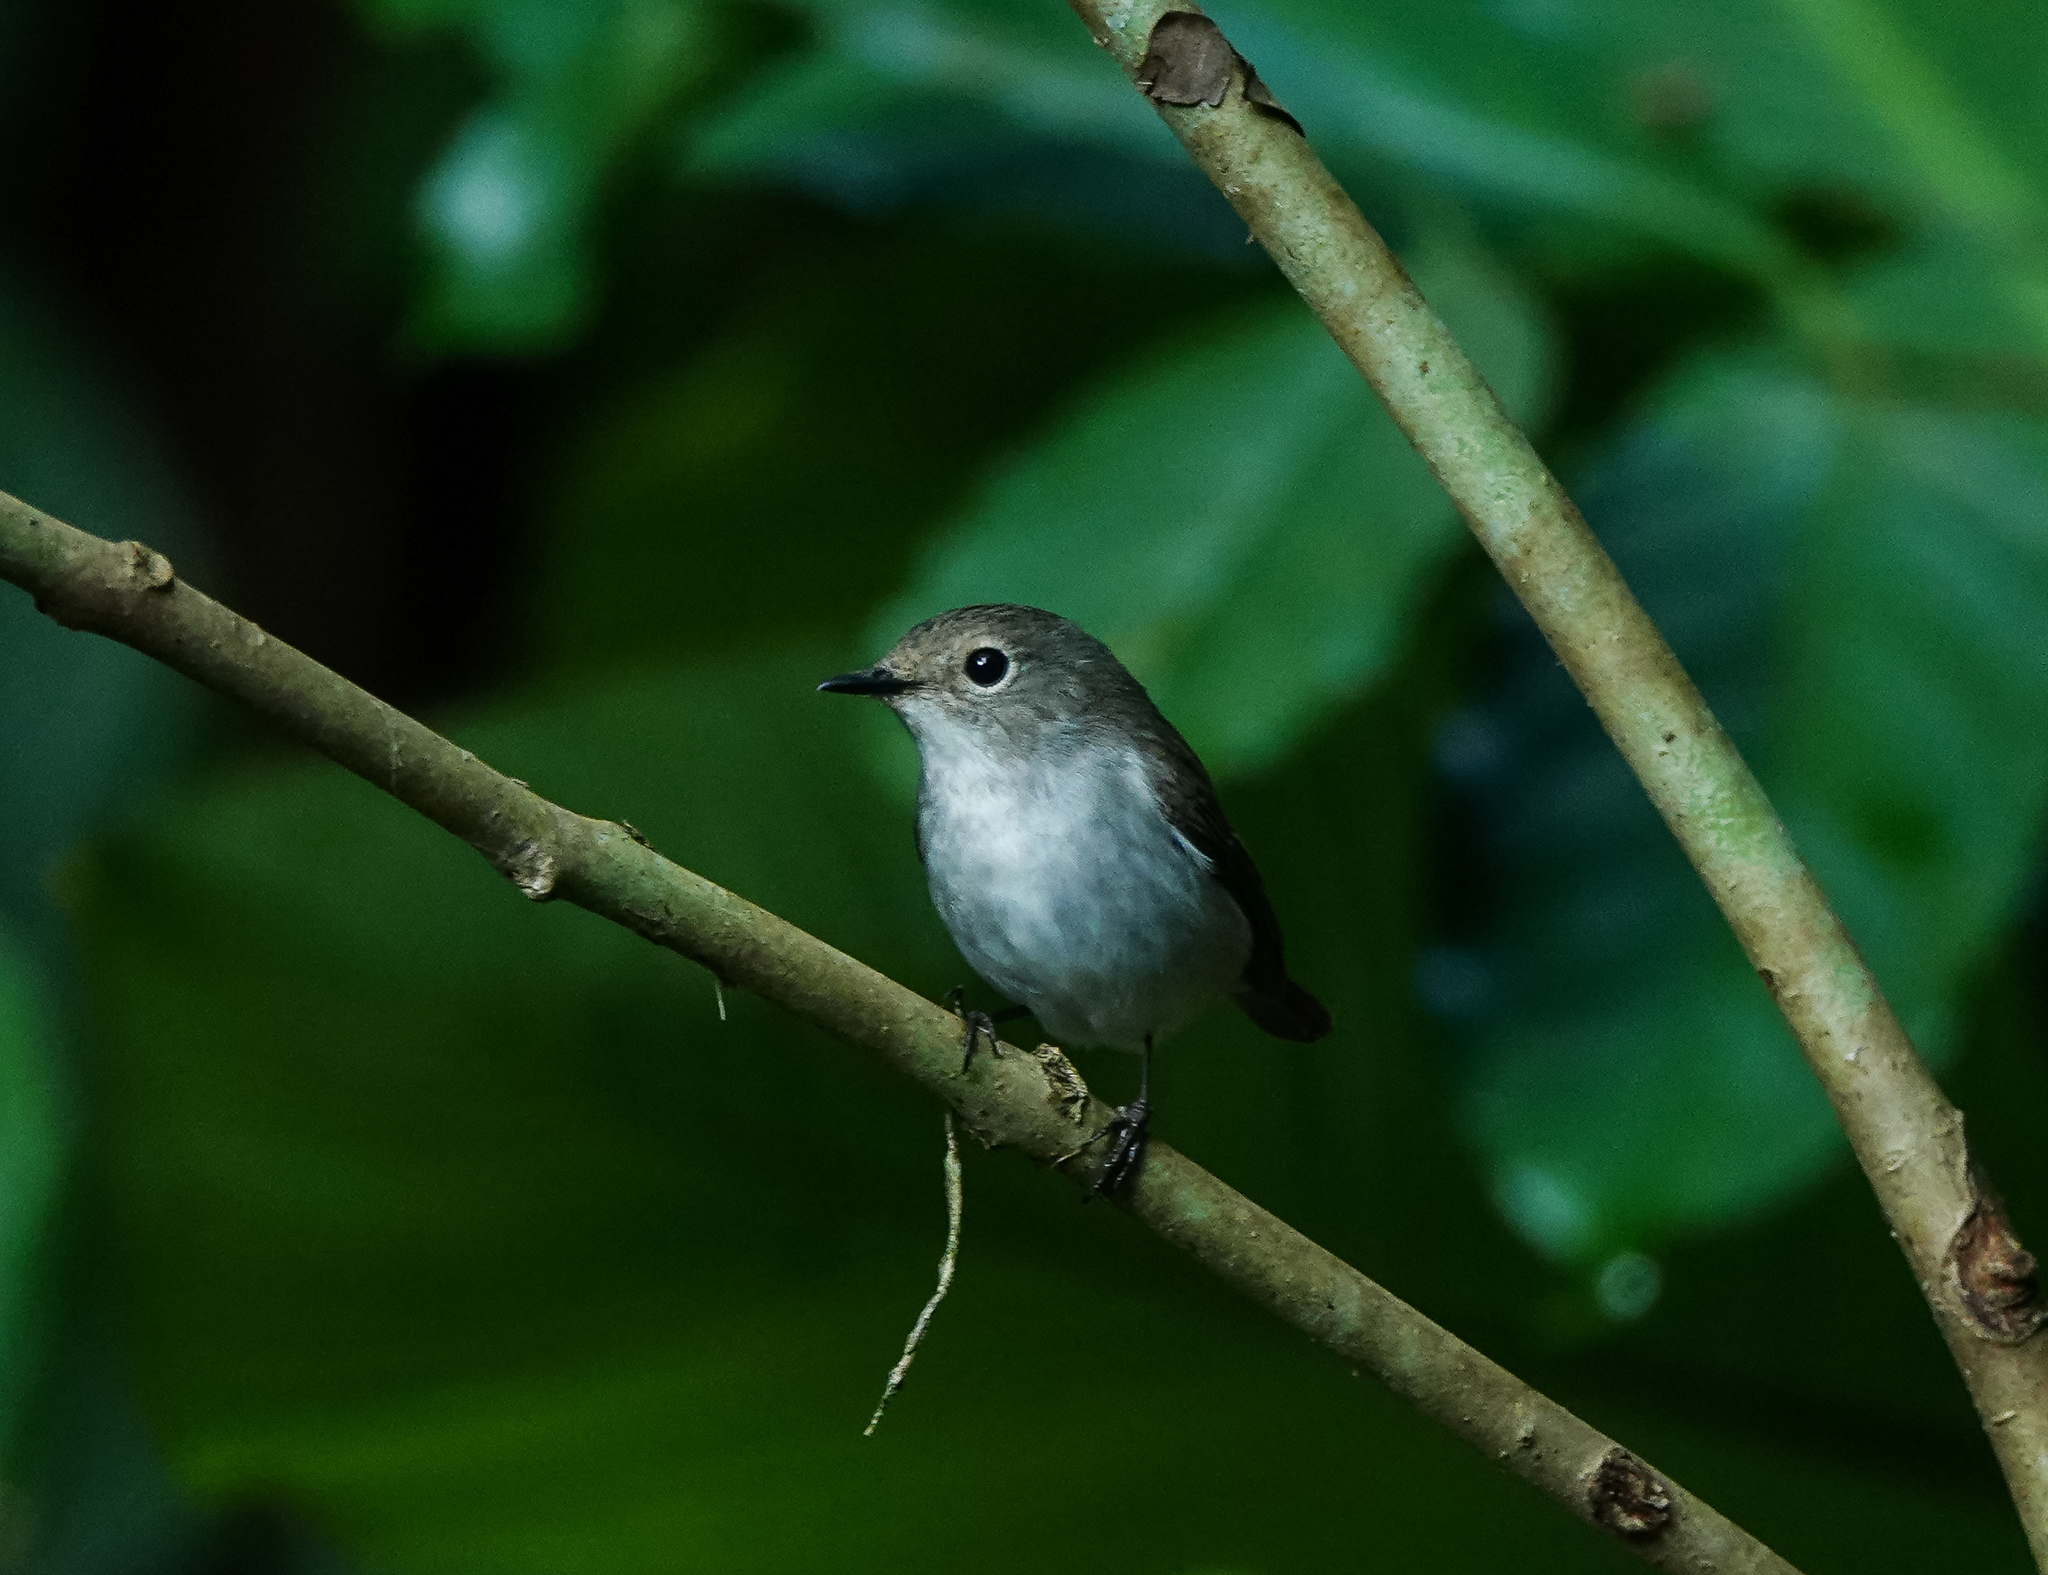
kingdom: Animalia
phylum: Chordata
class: Aves
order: Passeriformes
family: Muscicapidae
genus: Ficedula
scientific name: Ficedula westermanni
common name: Little pied flycatcher
